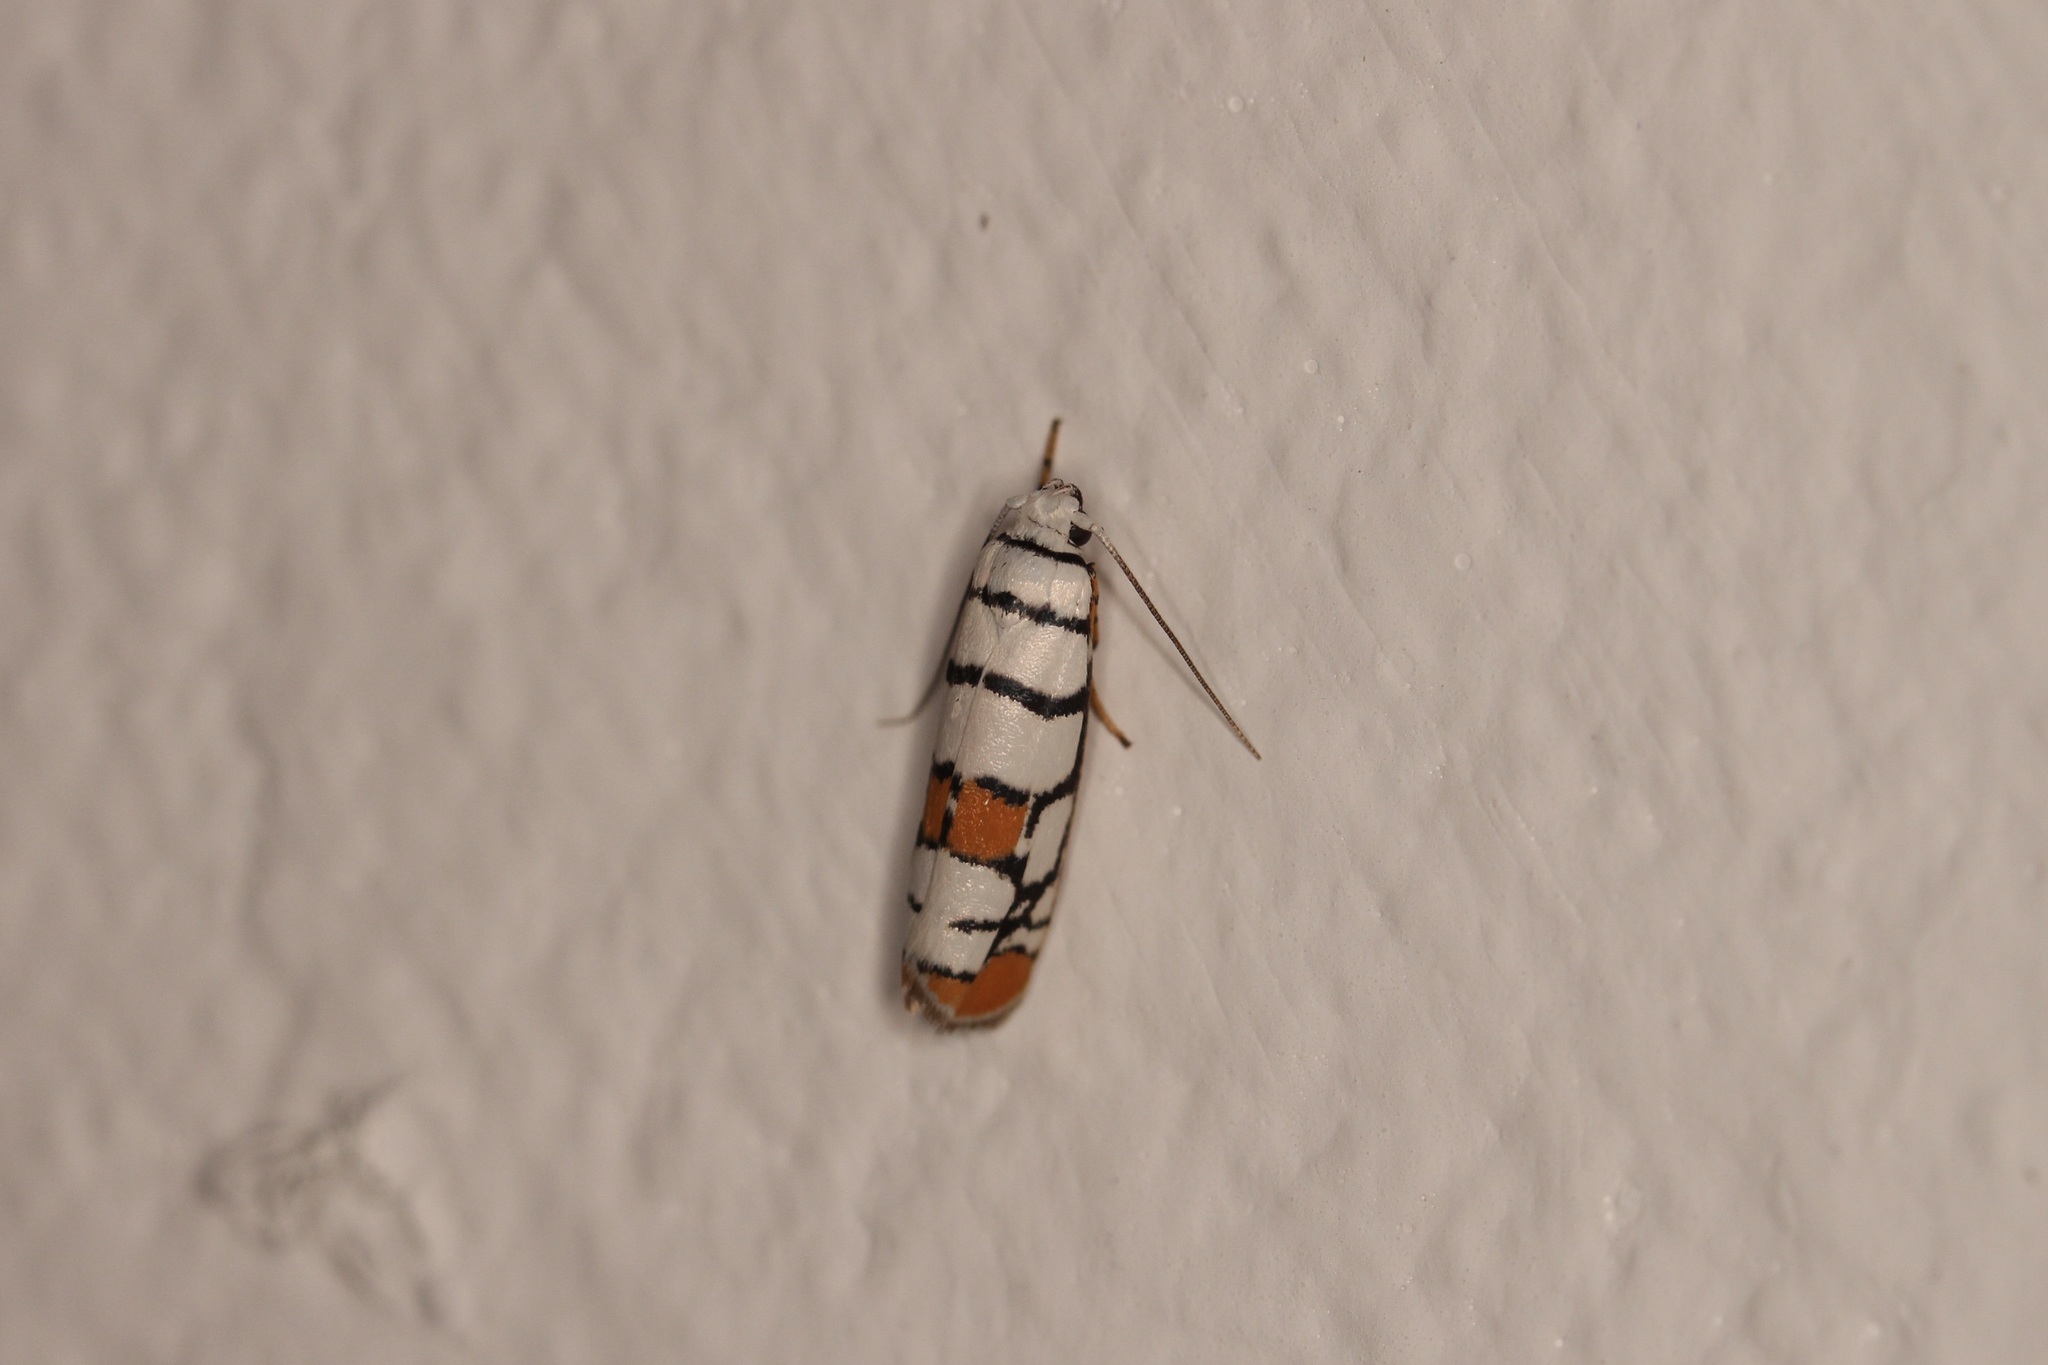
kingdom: Animalia
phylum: Arthropoda
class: Insecta
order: Lepidoptera
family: Ethmiidae
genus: Ethmia
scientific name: Ethmia festiva
